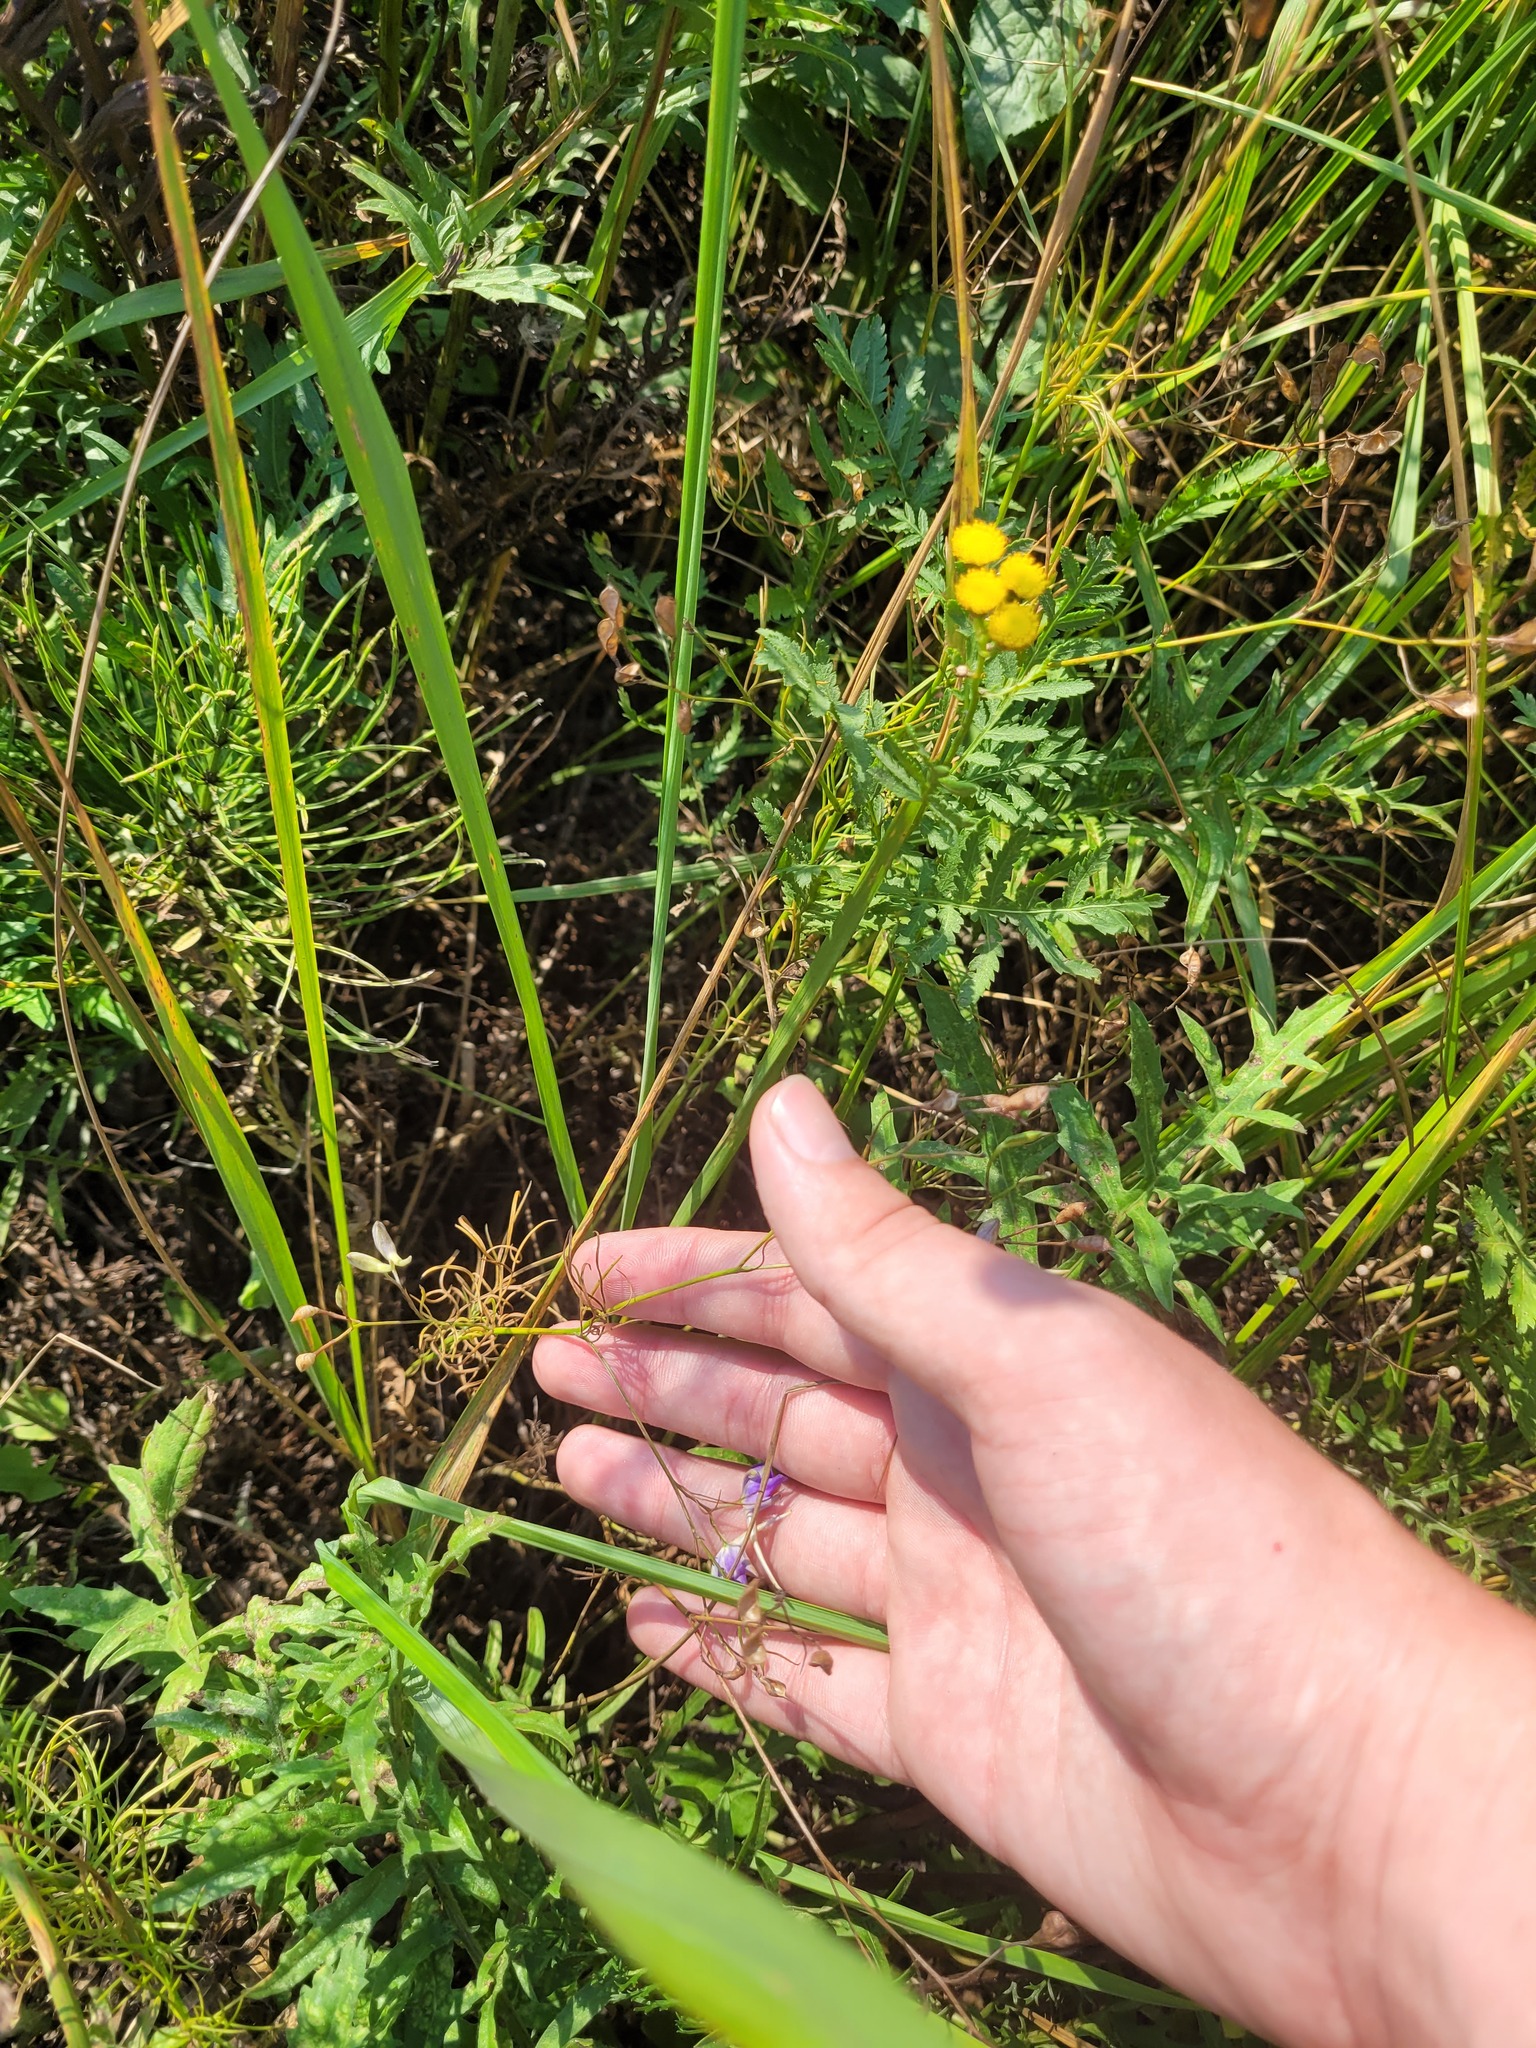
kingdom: Plantae
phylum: Tracheophyta
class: Magnoliopsida
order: Ranunculales
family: Ranunculaceae
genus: Delphinium
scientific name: Delphinium consolida
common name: Branching larkspur
